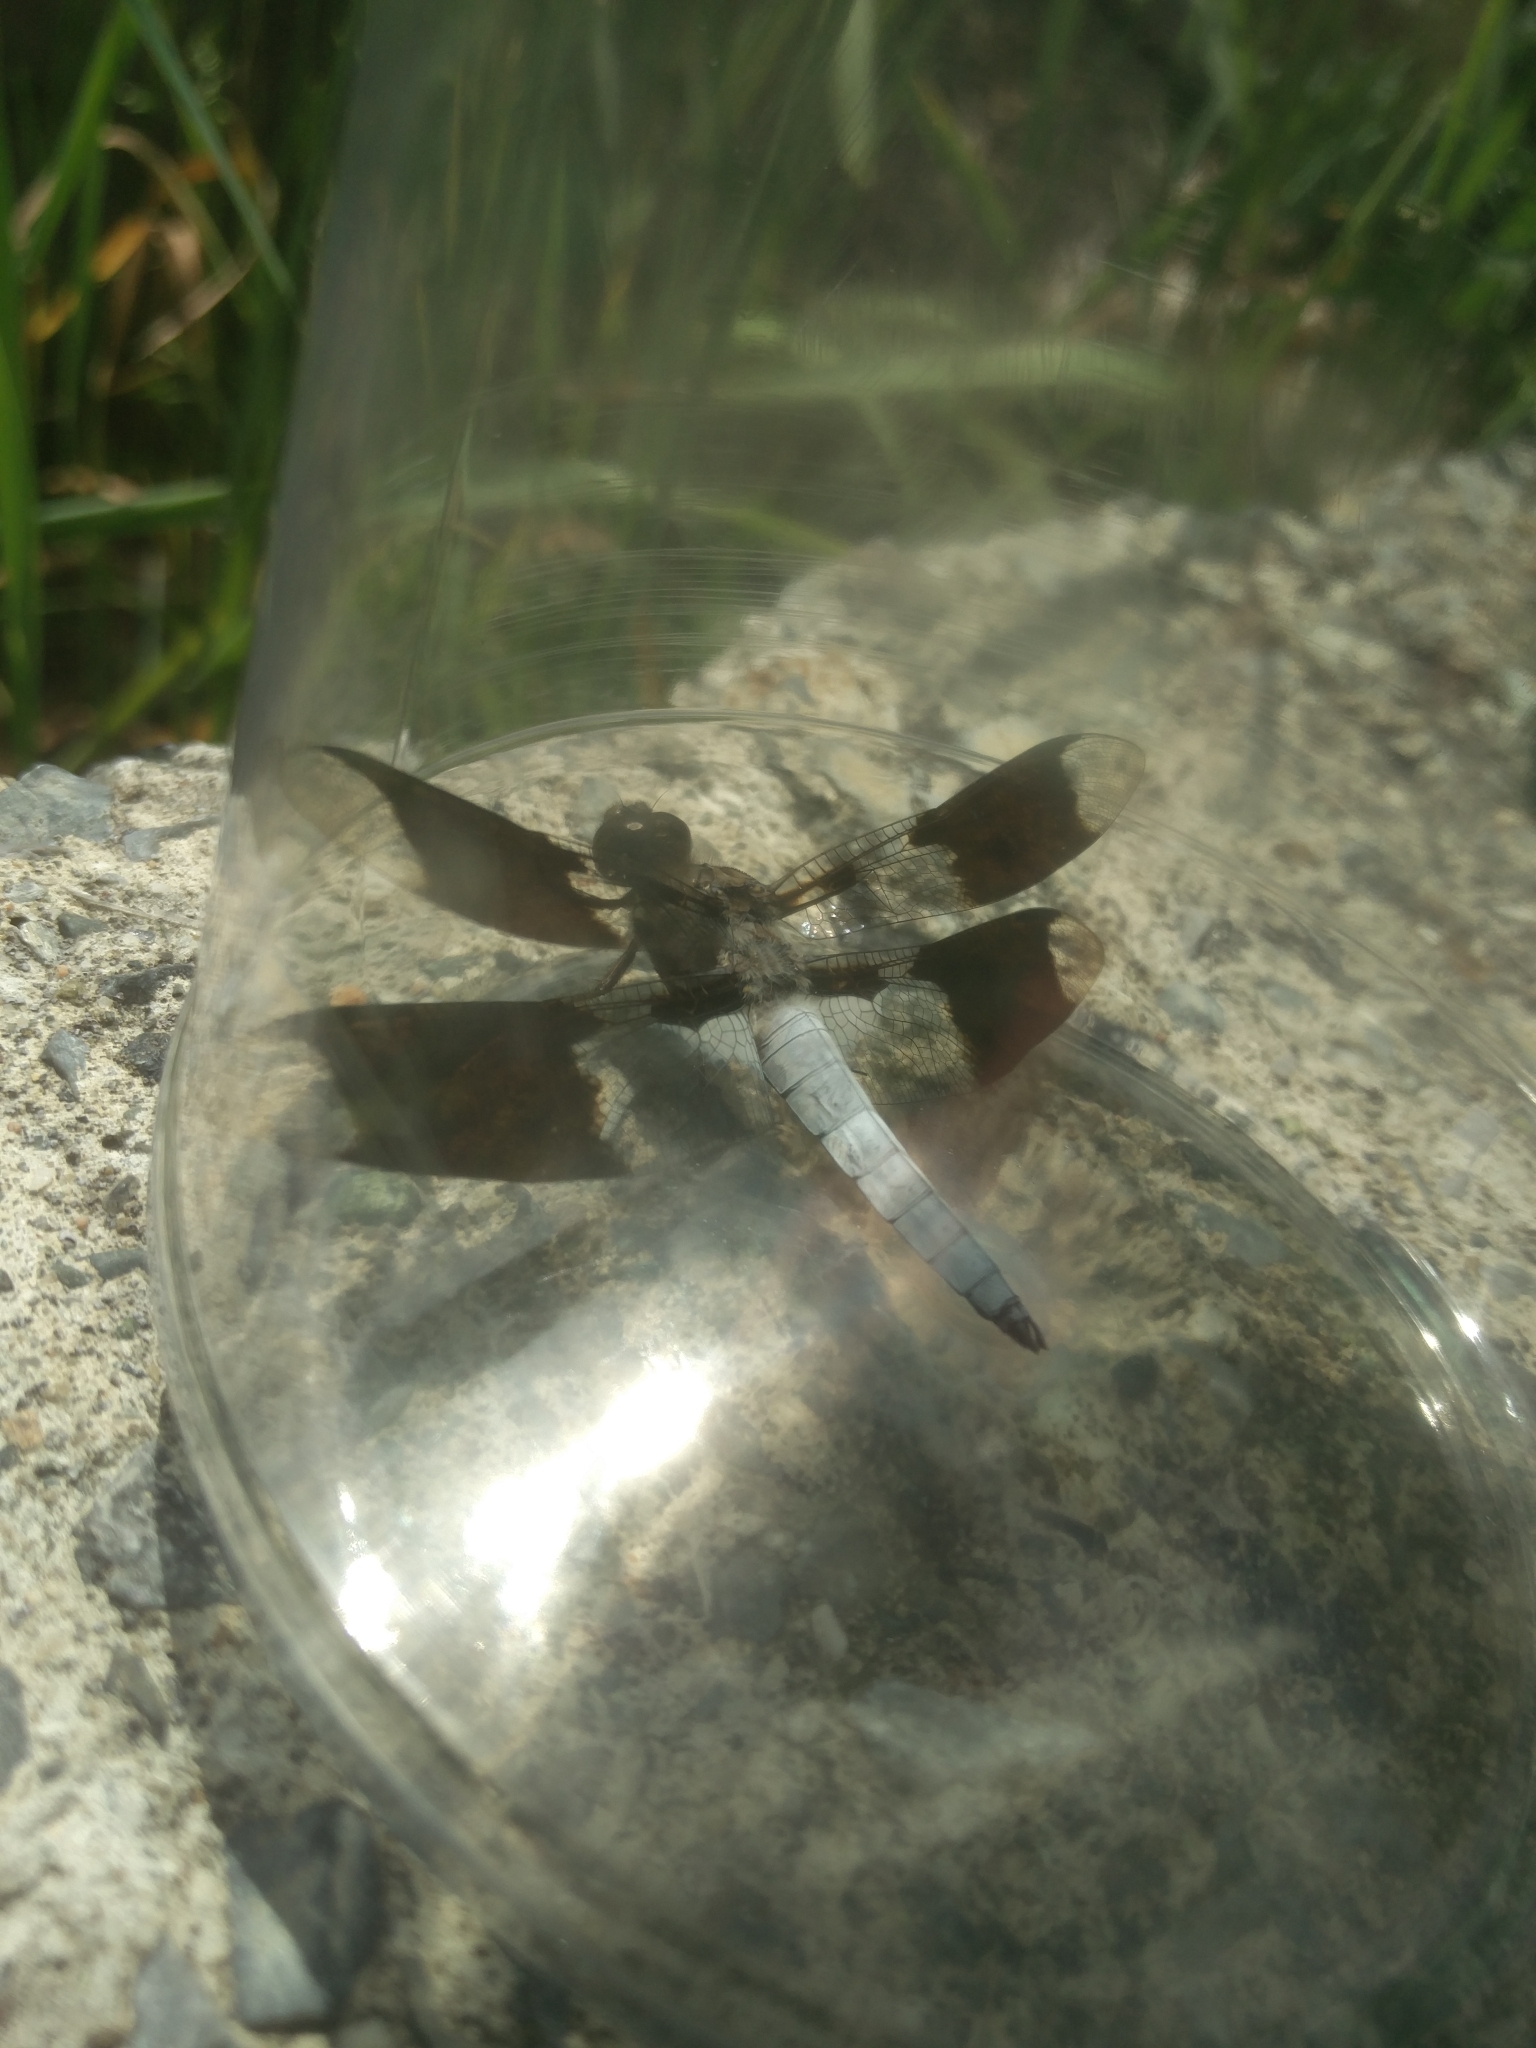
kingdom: Animalia
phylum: Arthropoda
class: Insecta
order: Odonata
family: Libellulidae
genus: Plathemis
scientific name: Plathemis lydia
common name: Common whitetail
